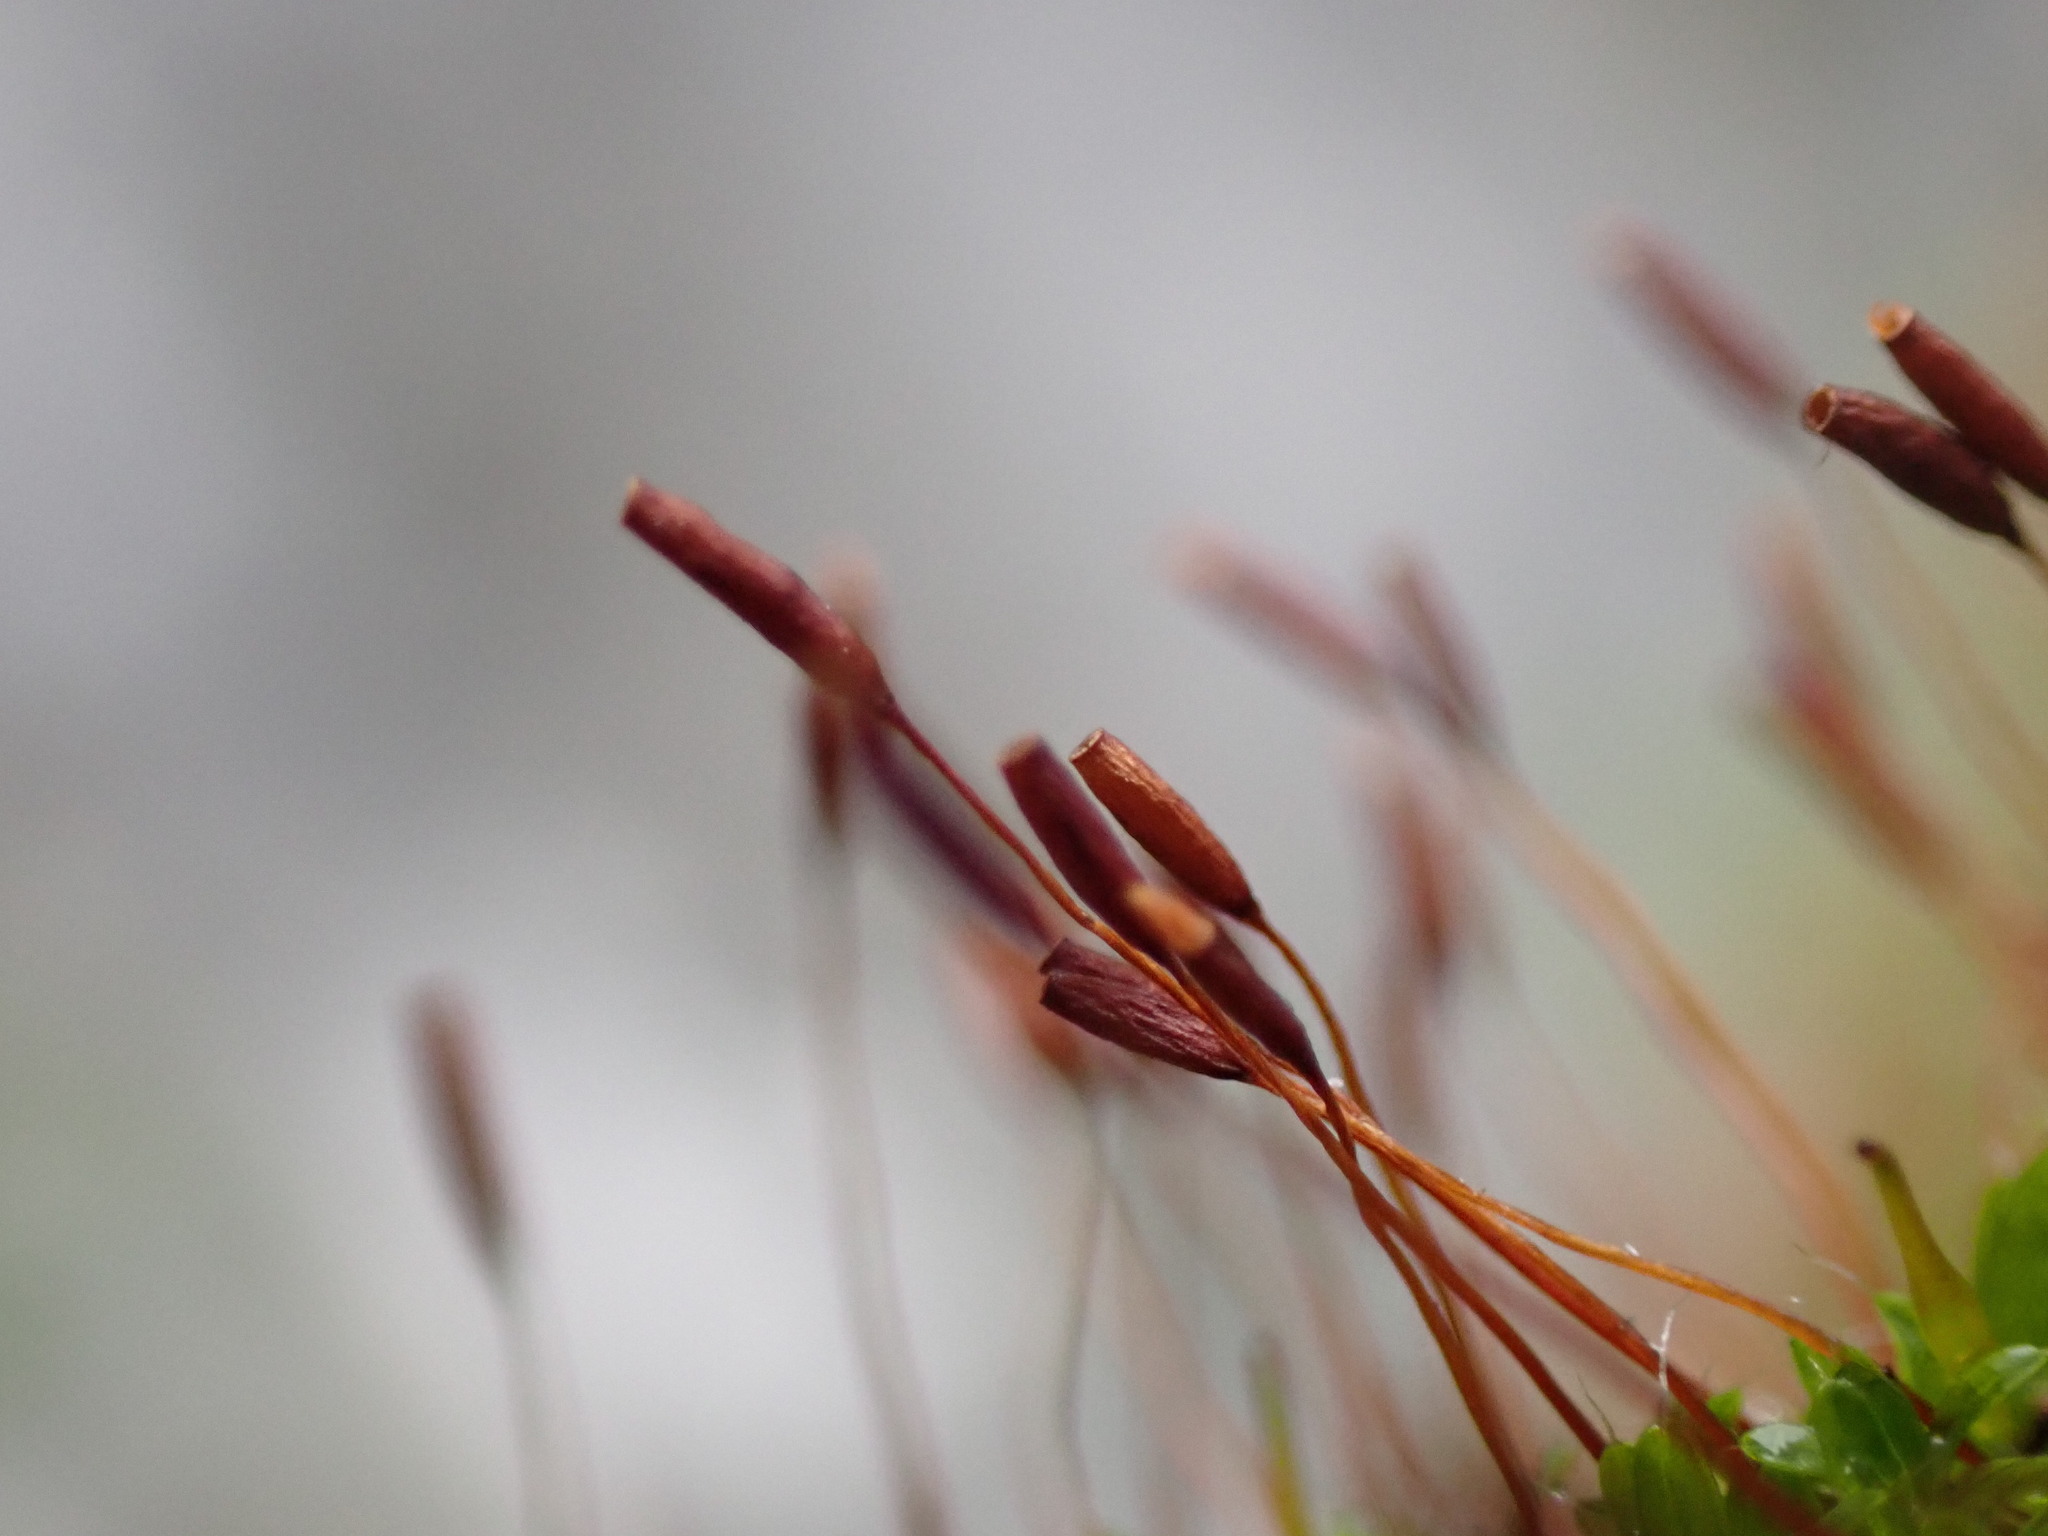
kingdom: Plantae
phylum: Bryophyta
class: Bryopsida
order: Pottiales
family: Pottiaceae
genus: Tortula
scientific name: Tortula muralis
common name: Wall screw-moss
